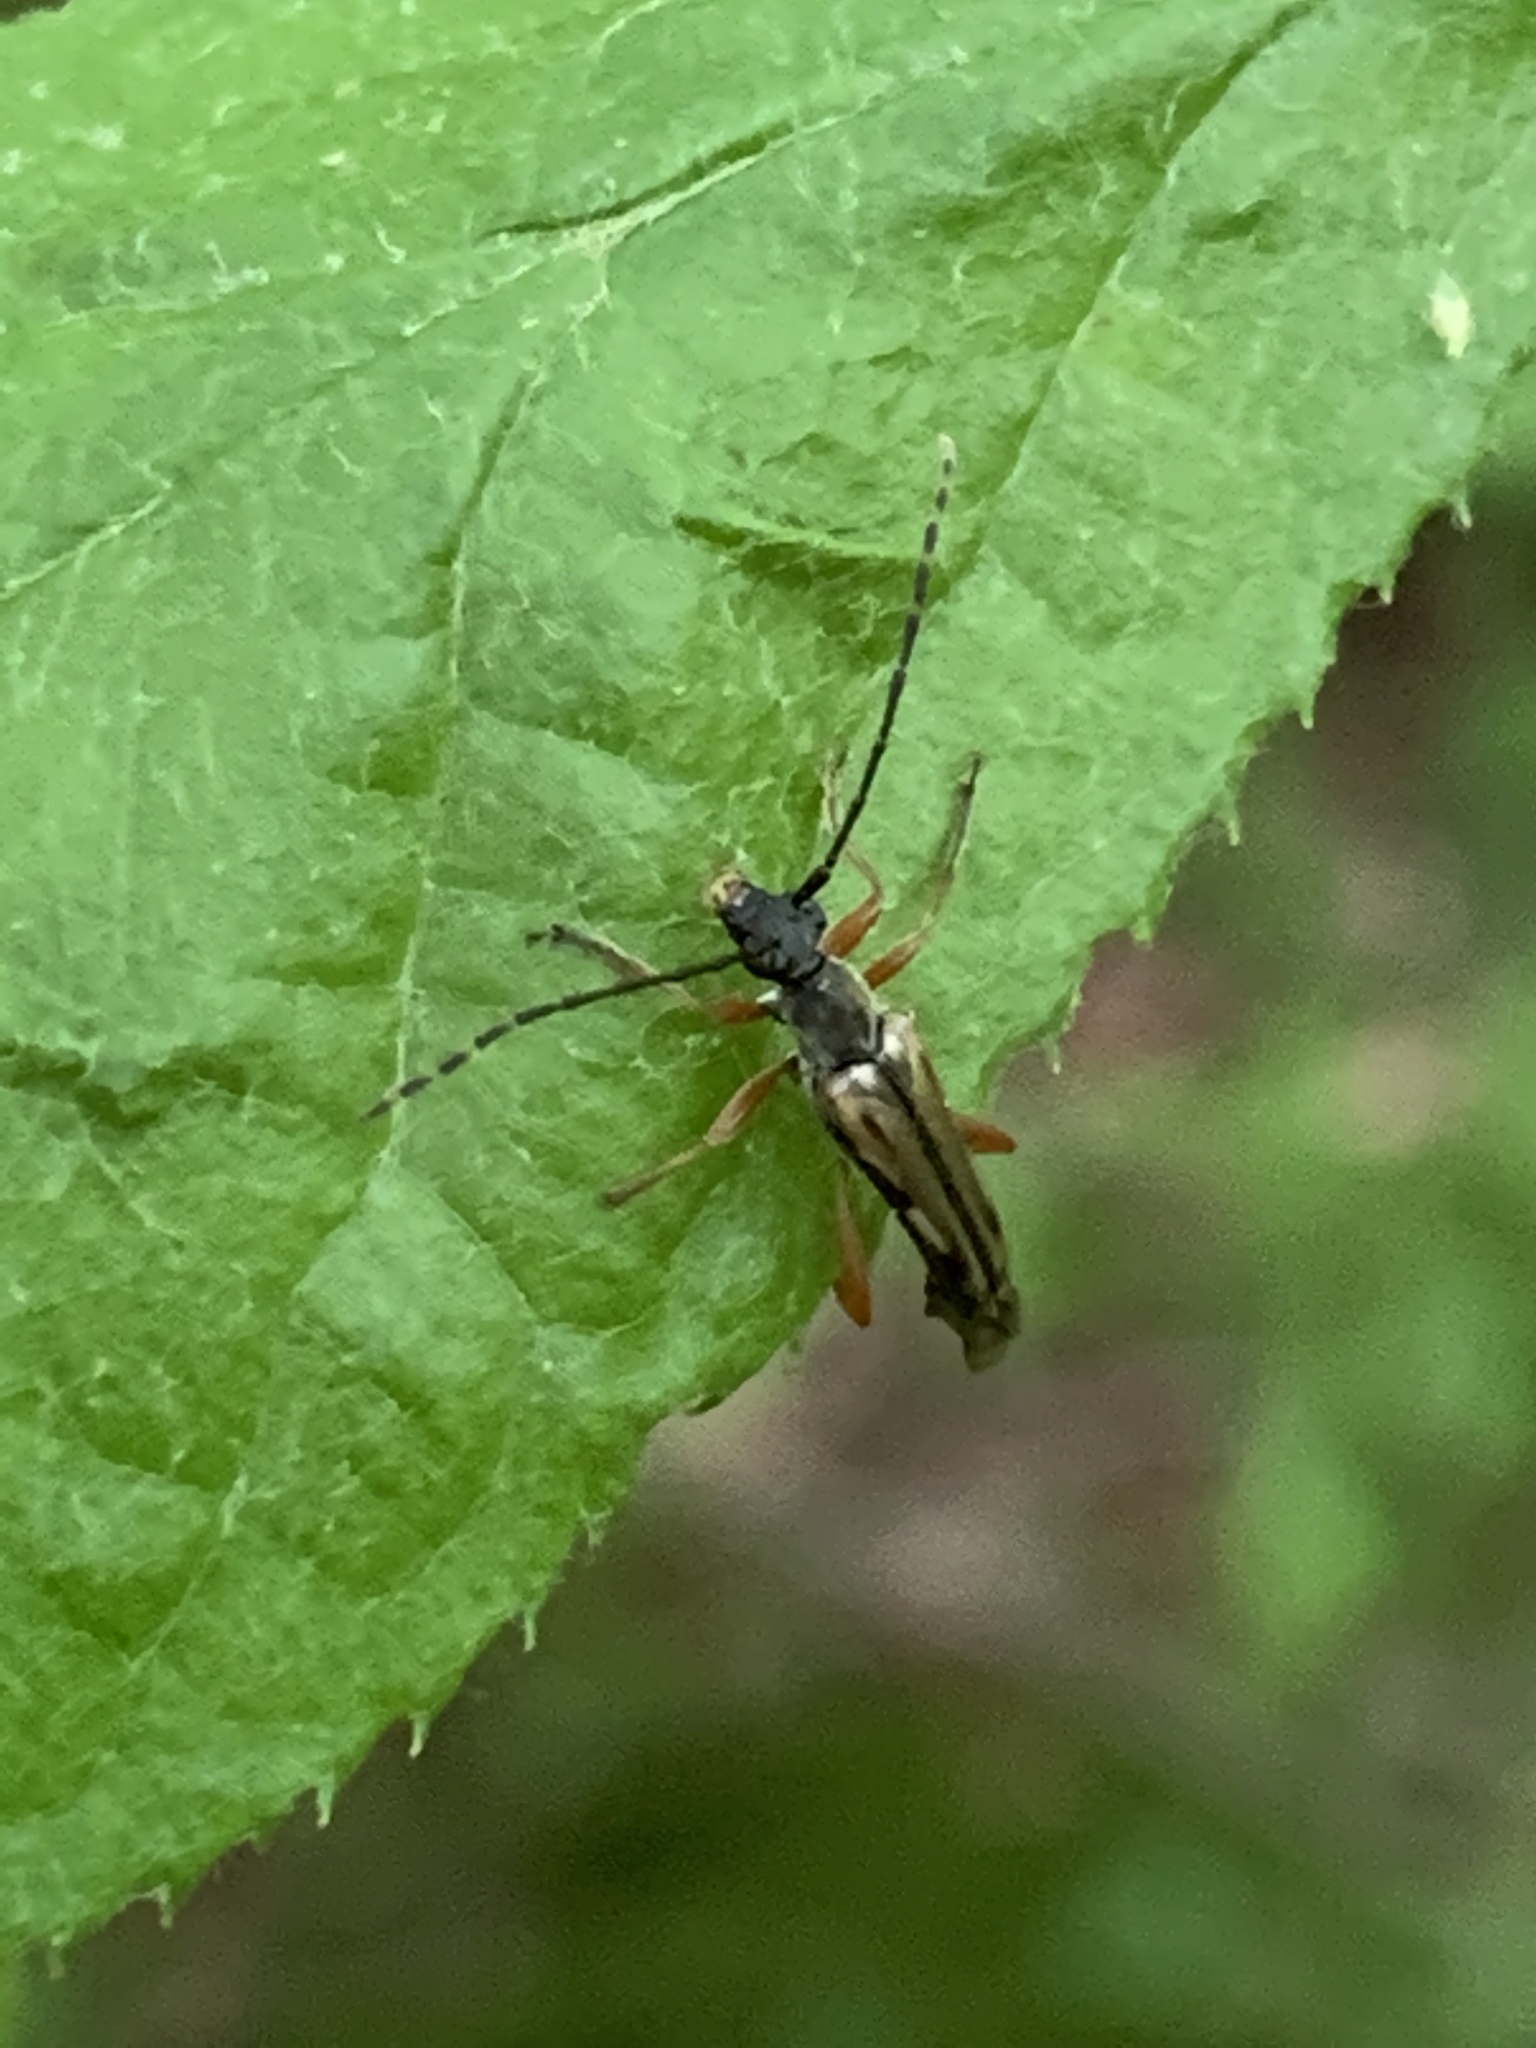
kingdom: Animalia
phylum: Arthropoda
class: Insecta
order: Coleoptera
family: Cerambycidae
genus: Analeptura
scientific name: Analeptura lineola
